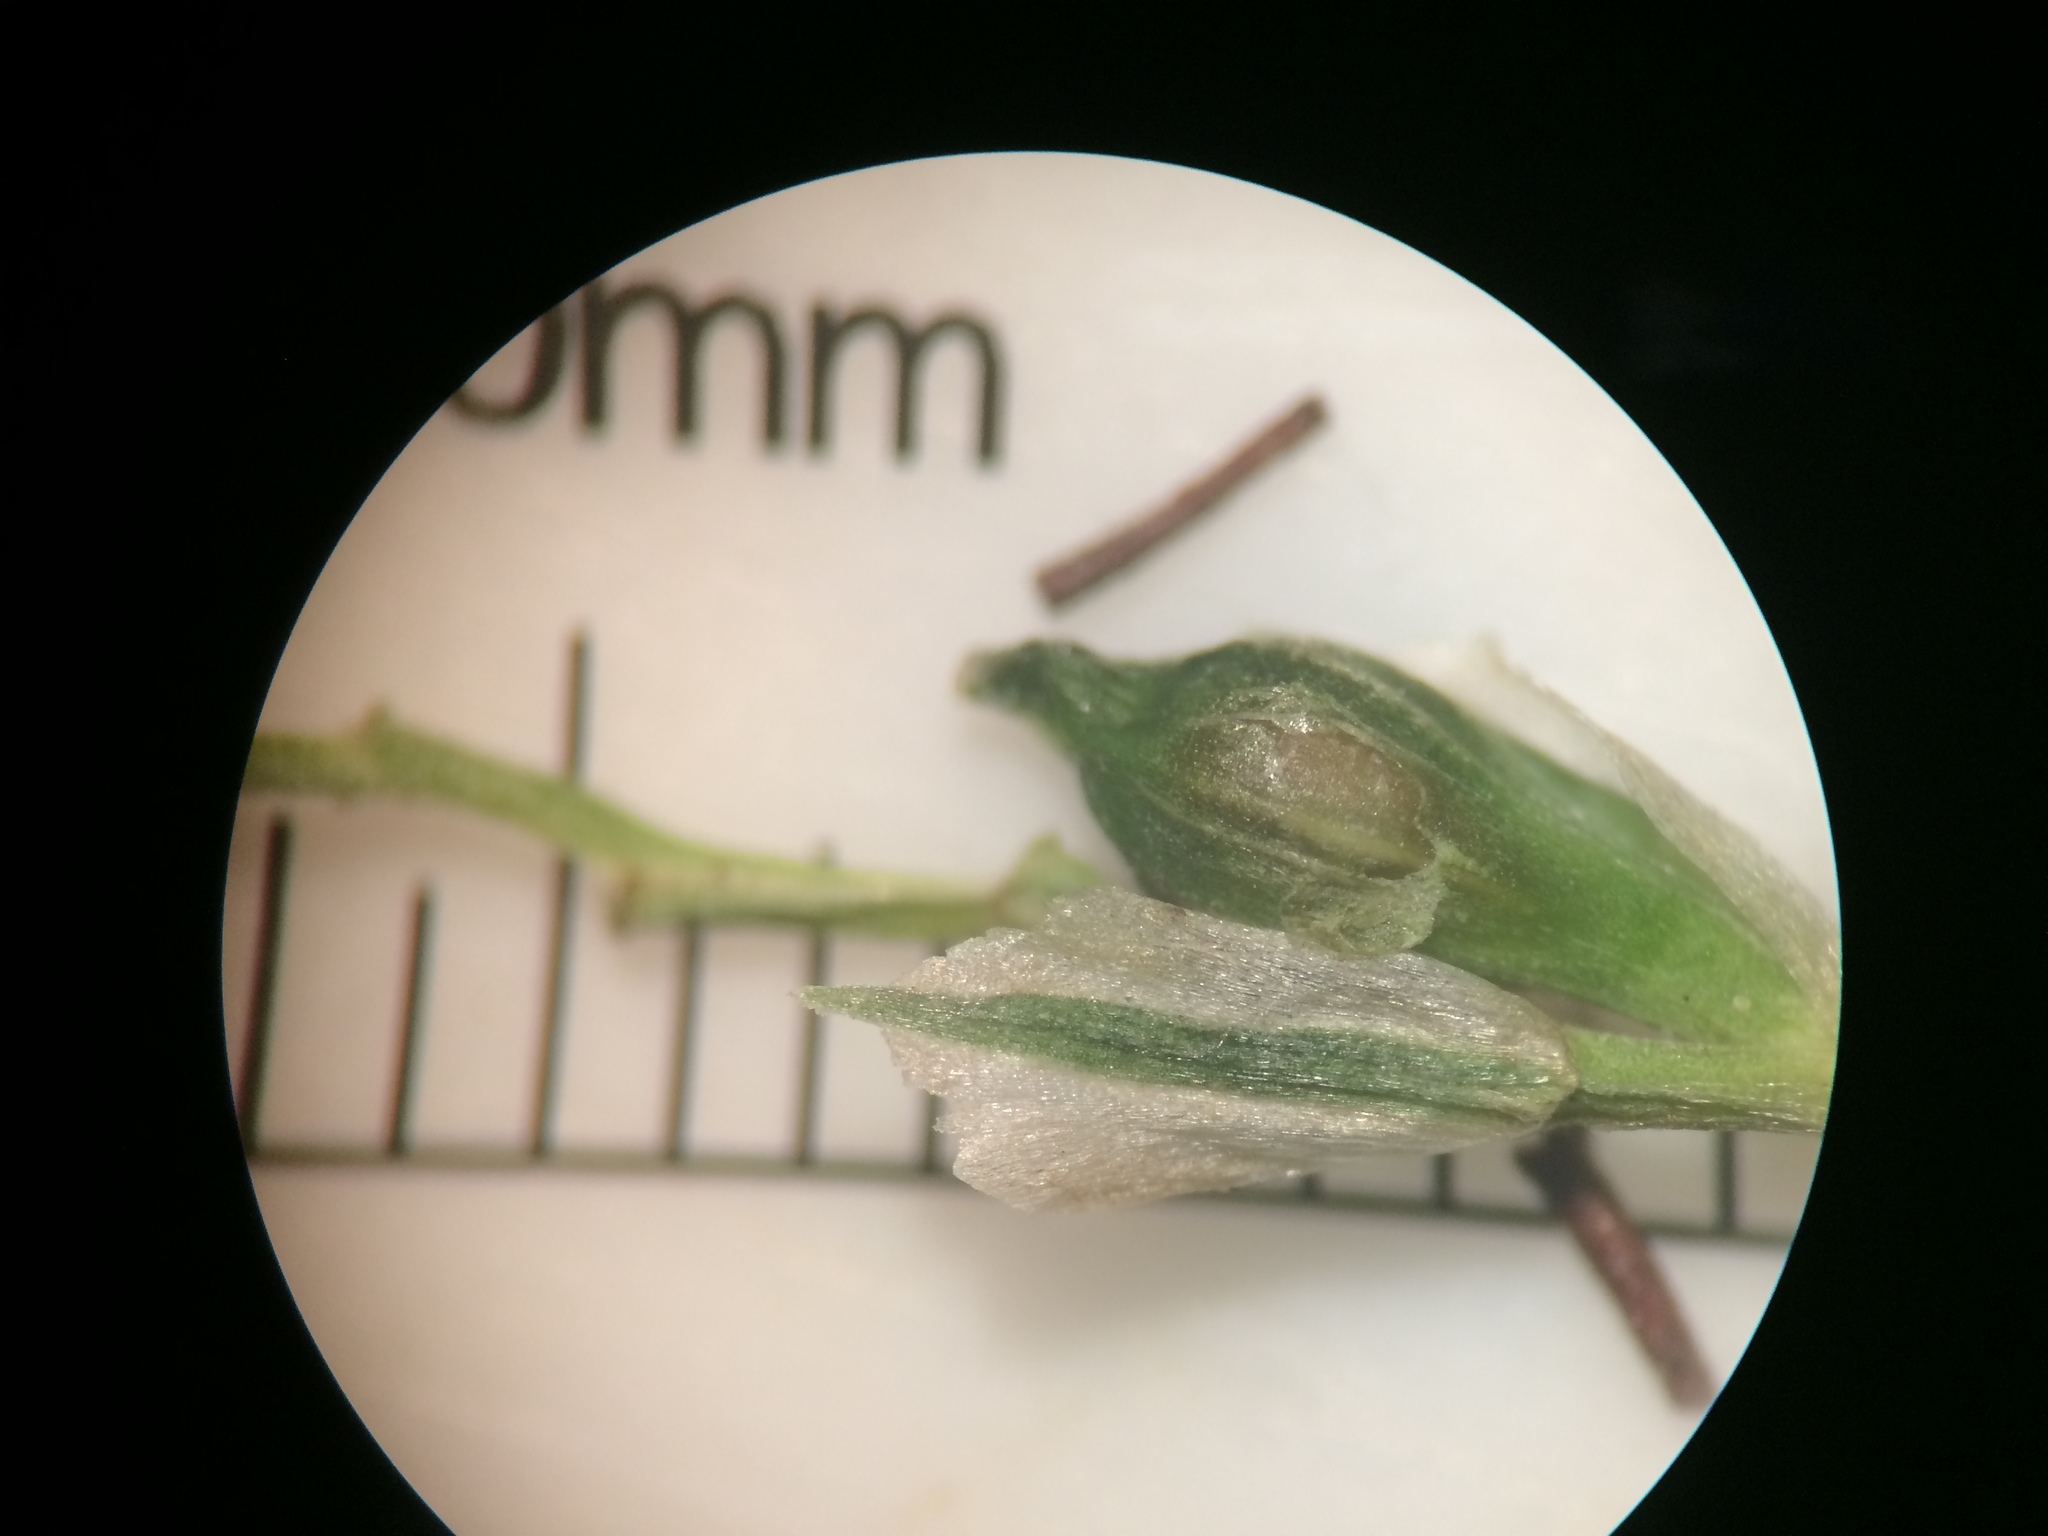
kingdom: Plantae
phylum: Tracheophyta
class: Liliopsida
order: Poales
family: Cyperaceae
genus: Carex
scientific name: Carex blanda
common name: Bland sedge
